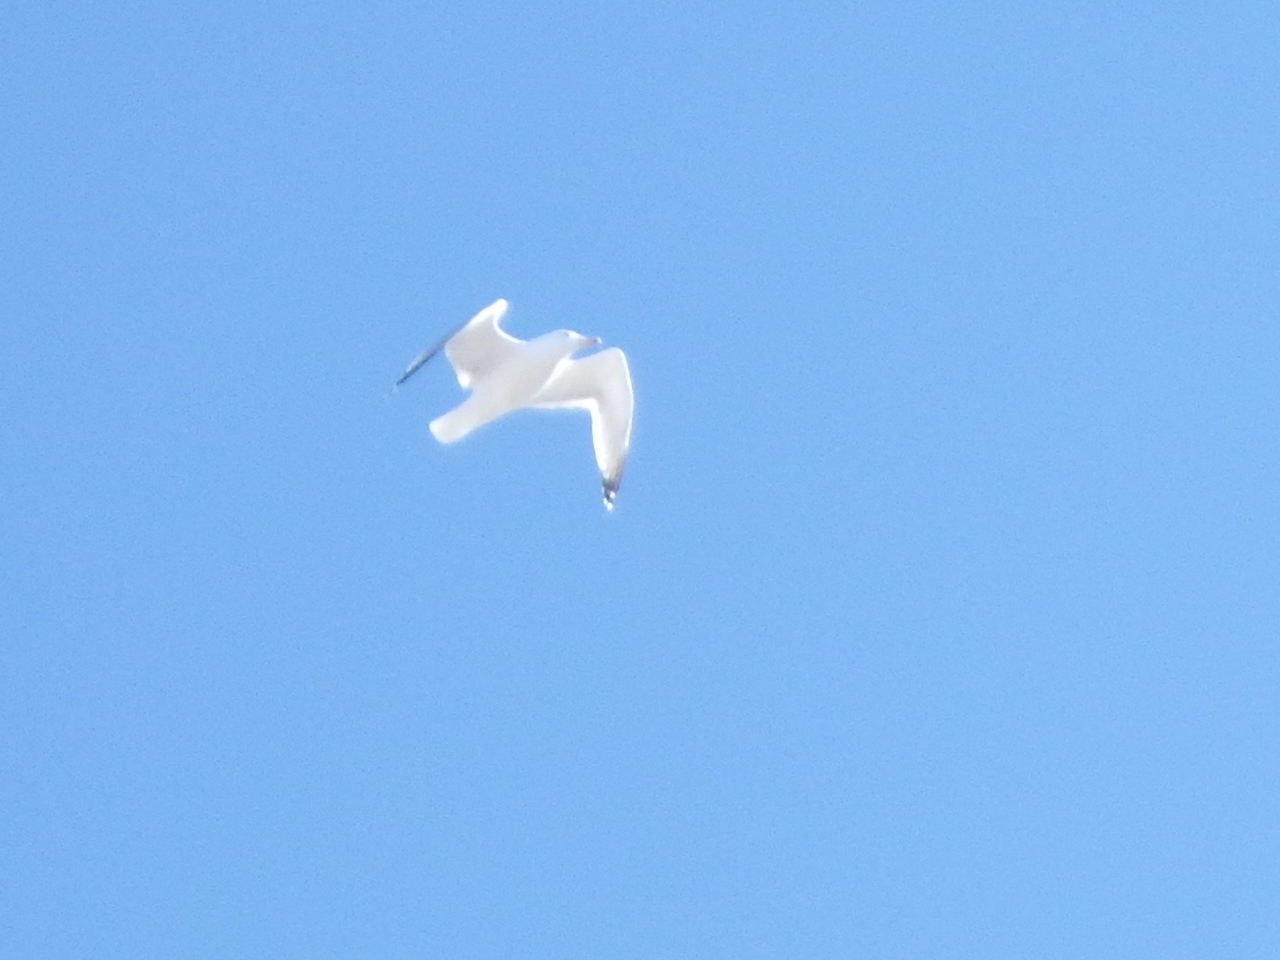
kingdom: Animalia
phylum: Chordata
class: Aves
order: Charadriiformes
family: Laridae
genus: Larus
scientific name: Larus argentatus
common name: Herring gull
